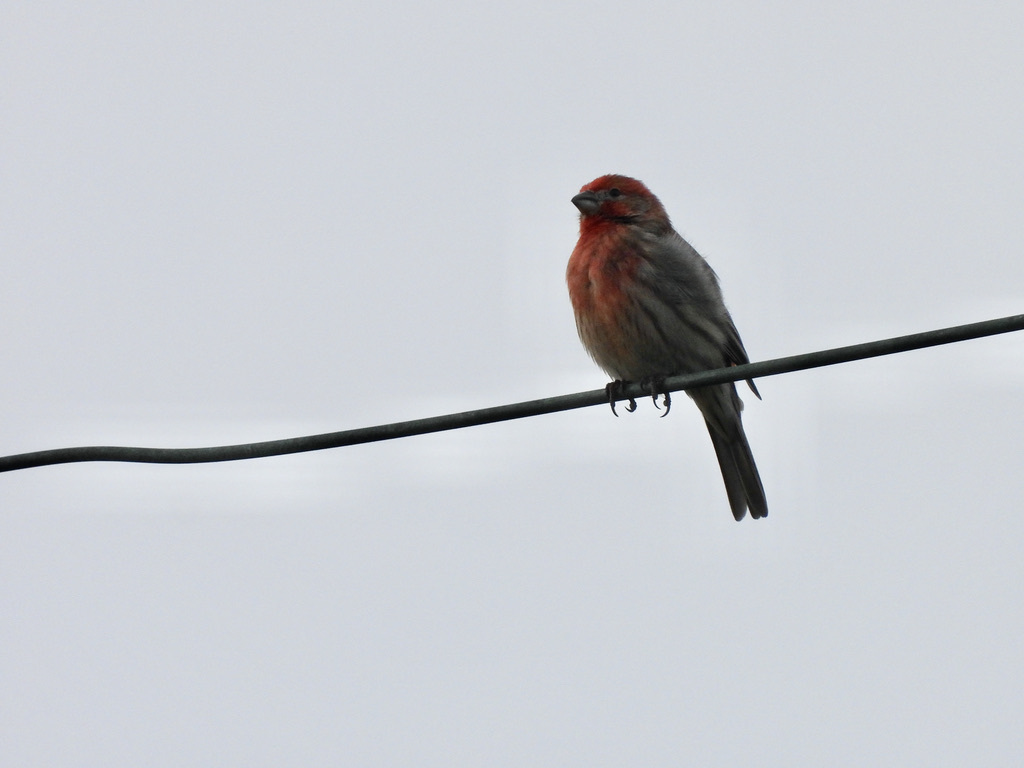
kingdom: Animalia
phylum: Chordata
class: Aves
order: Passeriformes
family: Fringillidae
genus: Haemorhous
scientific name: Haemorhous mexicanus
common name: House finch
